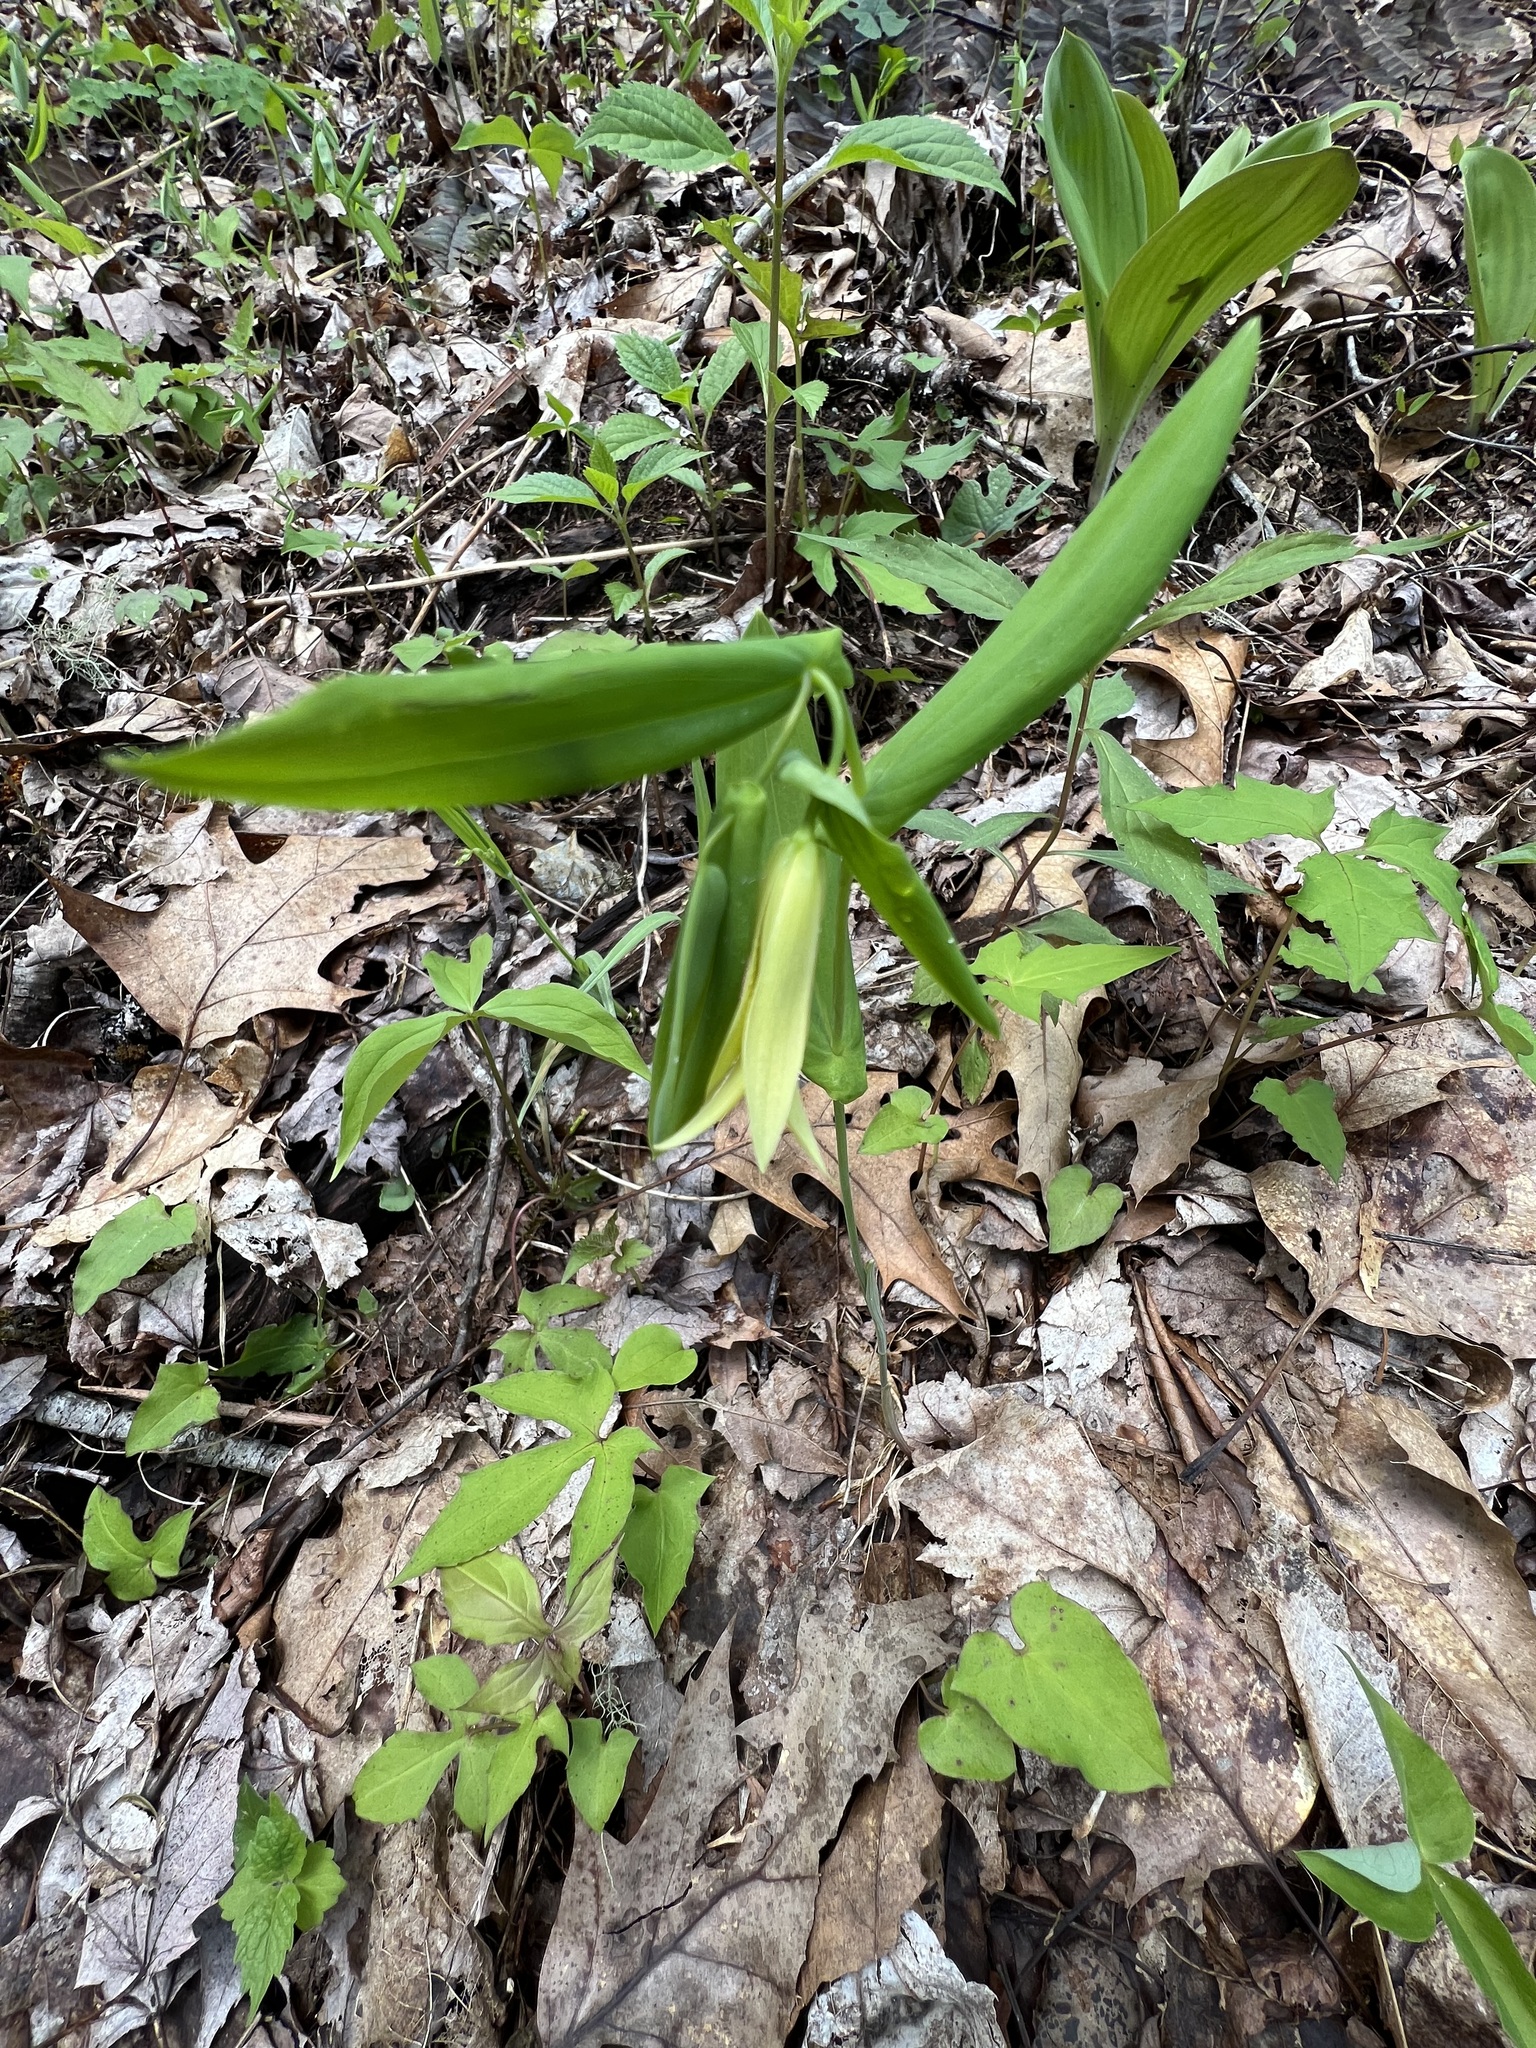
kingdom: Plantae
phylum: Tracheophyta
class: Liliopsida
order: Liliales
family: Colchicaceae
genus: Uvularia
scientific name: Uvularia perfoliata
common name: Perfoliate bellwort
